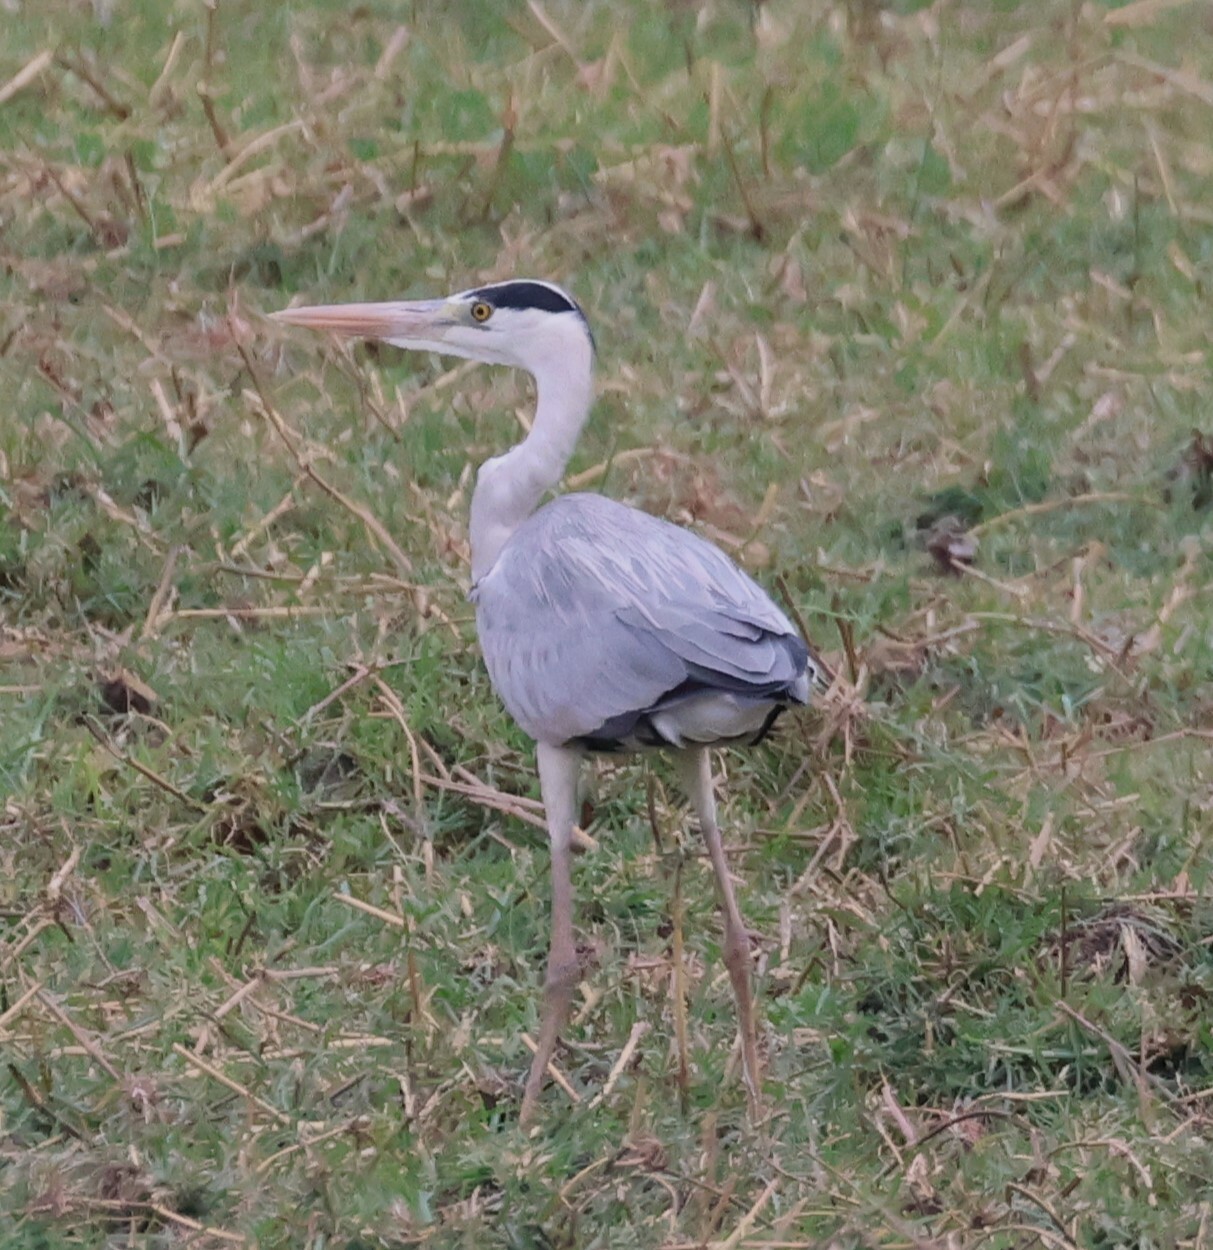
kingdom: Animalia
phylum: Chordata
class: Aves
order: Pelecaniformes
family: Ardeidae
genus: Ardea
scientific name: Ardea cinerea
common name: Grey heron
